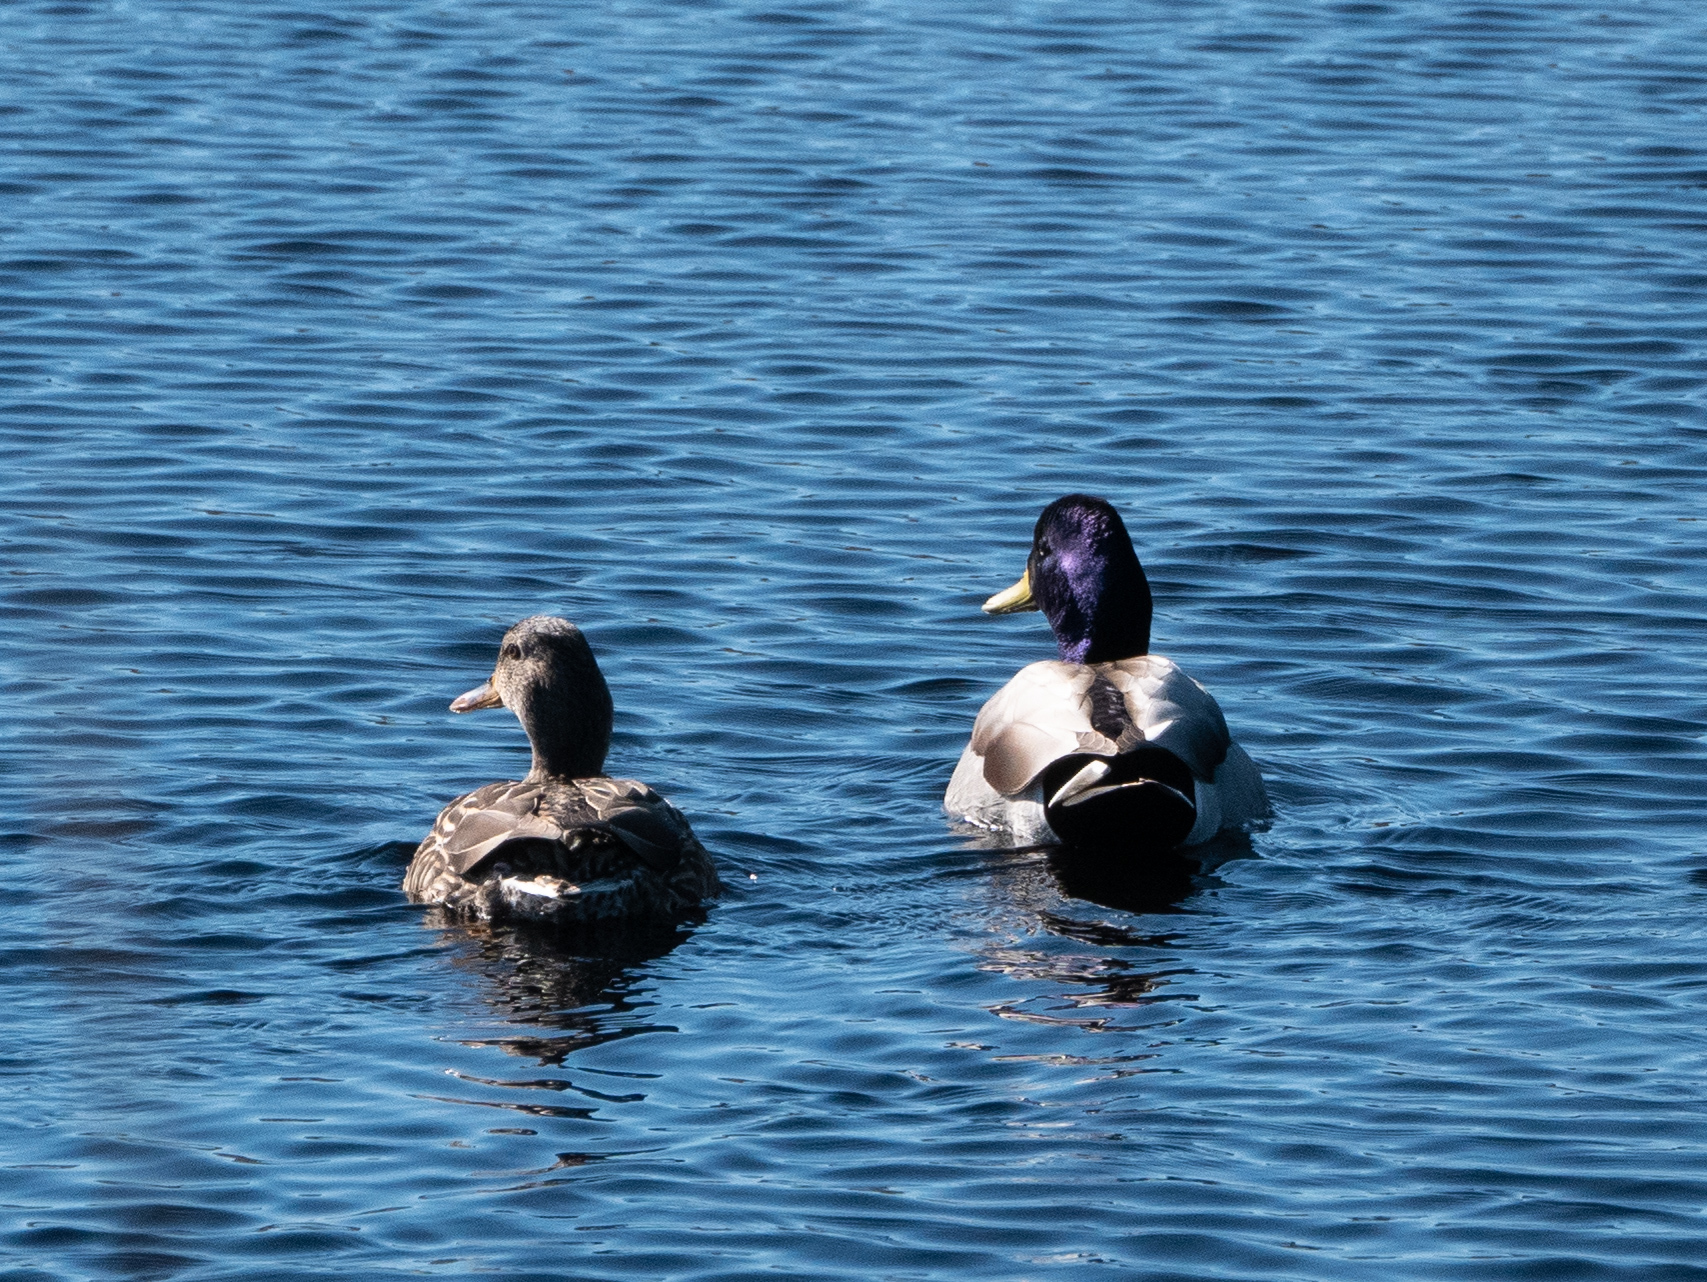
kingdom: Animalia
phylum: Chordata
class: Aves
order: Anseriformes
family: Anatidae
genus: Anas
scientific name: Anas platyrhynchos
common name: Mallard
